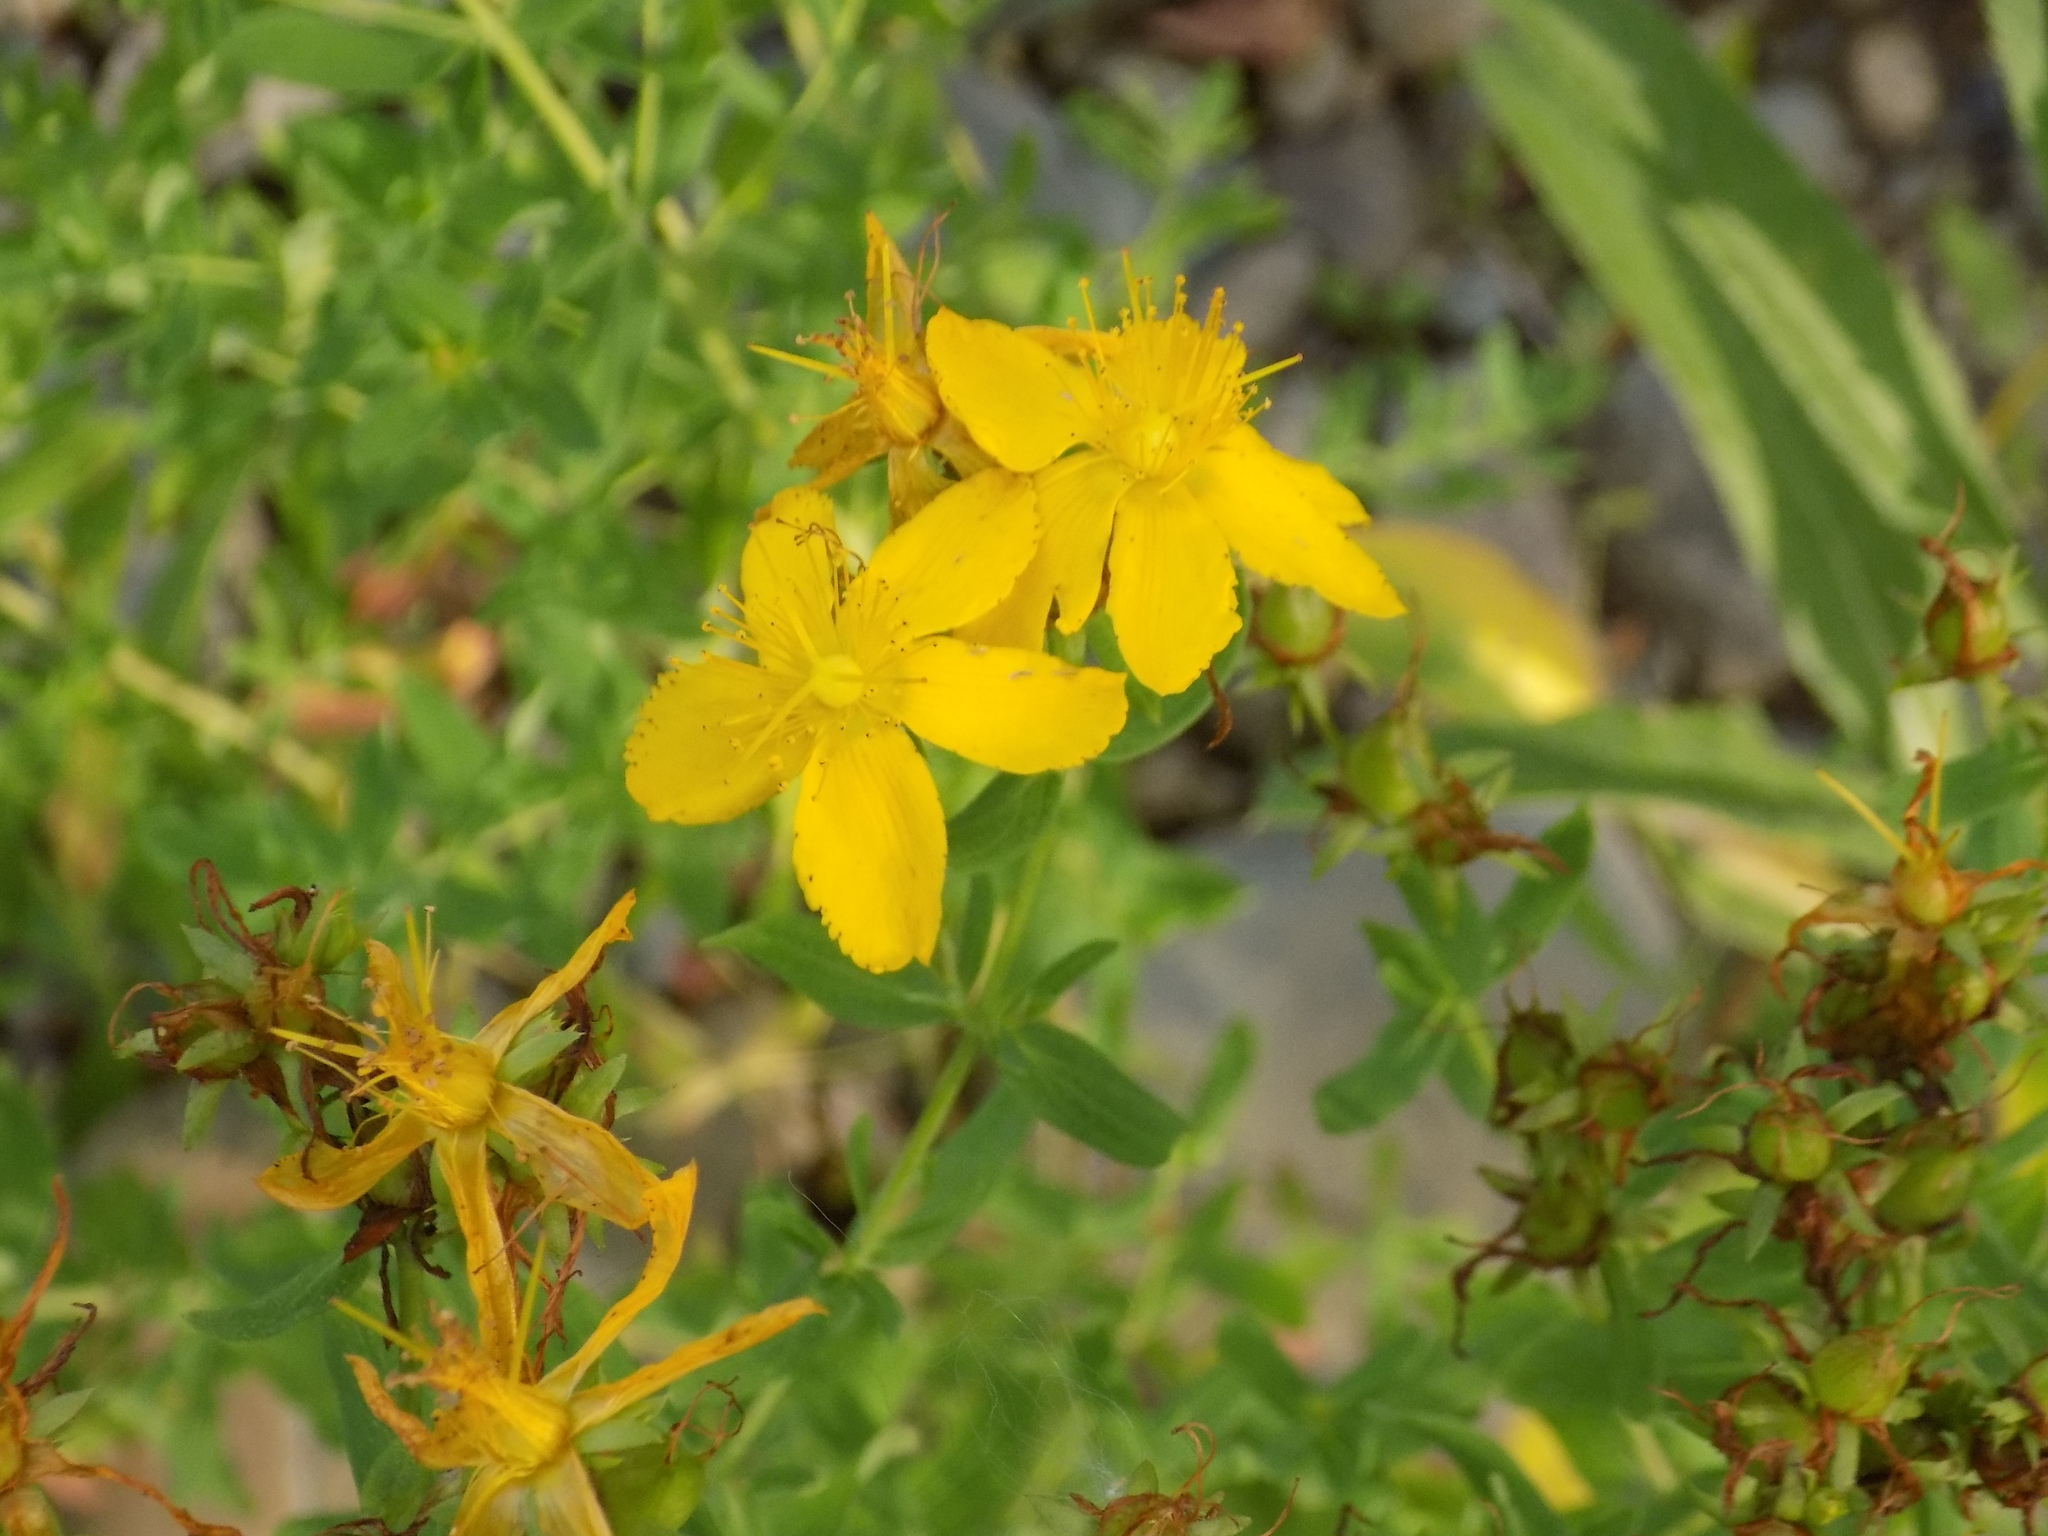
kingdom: Plantae
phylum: Tracheophyta
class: Magnoliopsida
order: Malpighiales
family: Hypericaceae
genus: Hypericum
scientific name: Hypericum perforatum
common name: Common st. johnswort
